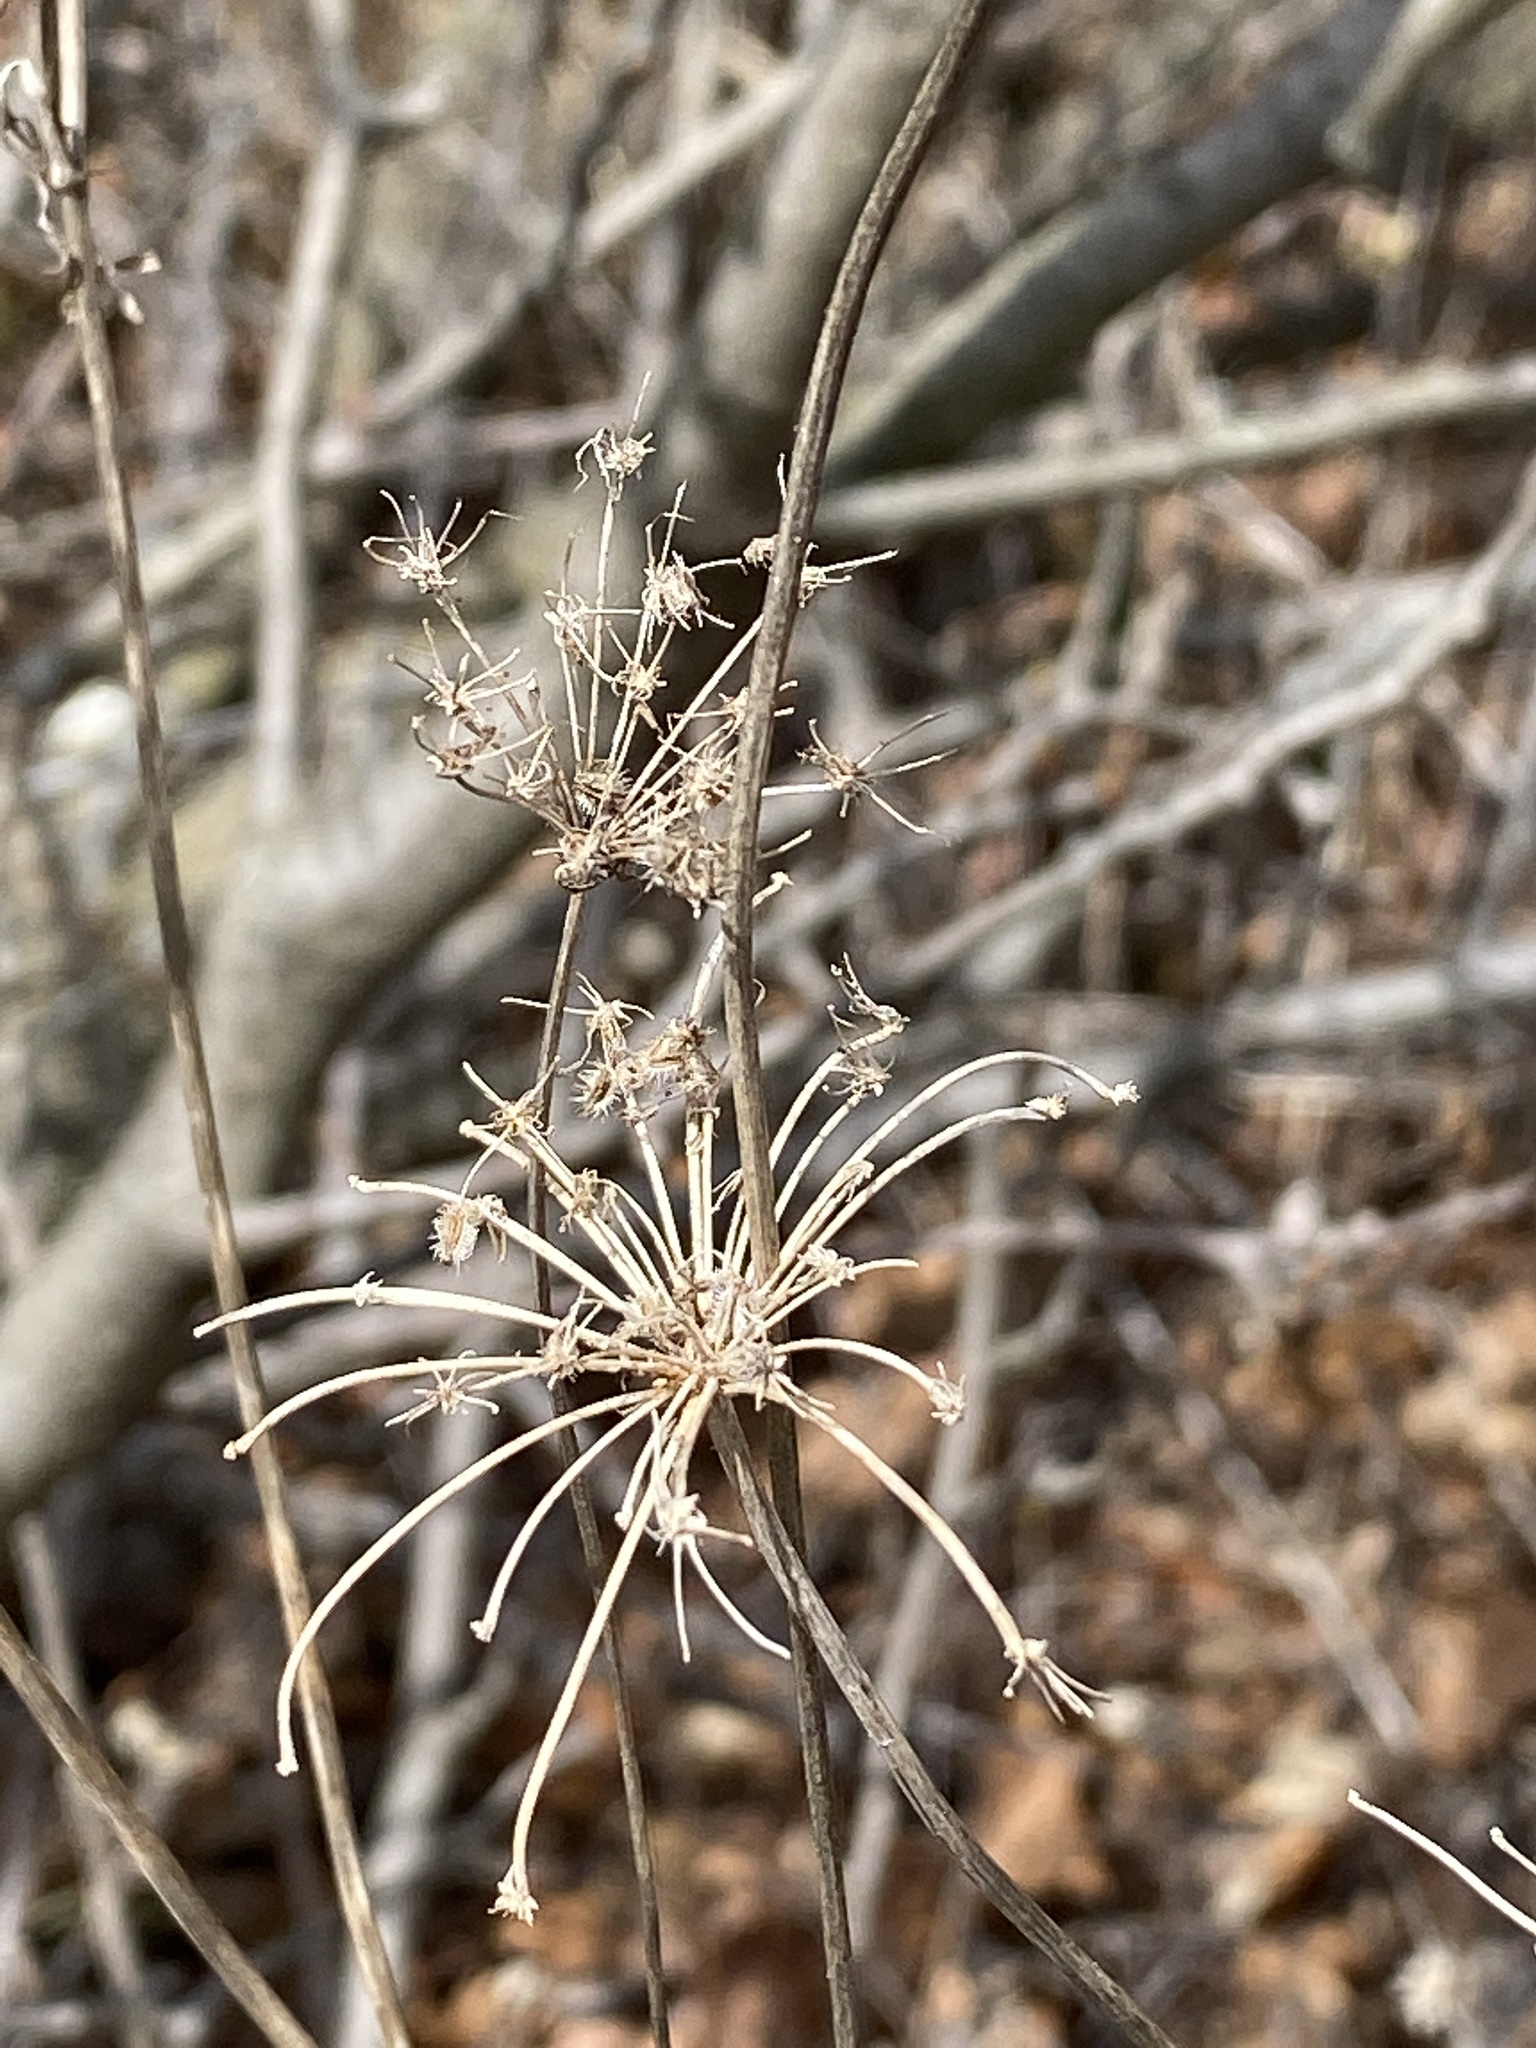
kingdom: Plantae
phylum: Tracheophyta
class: Magnoliopsida
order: Apiales
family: Apiaceae
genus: Daucus
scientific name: Daucus carota
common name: Wild carrot
